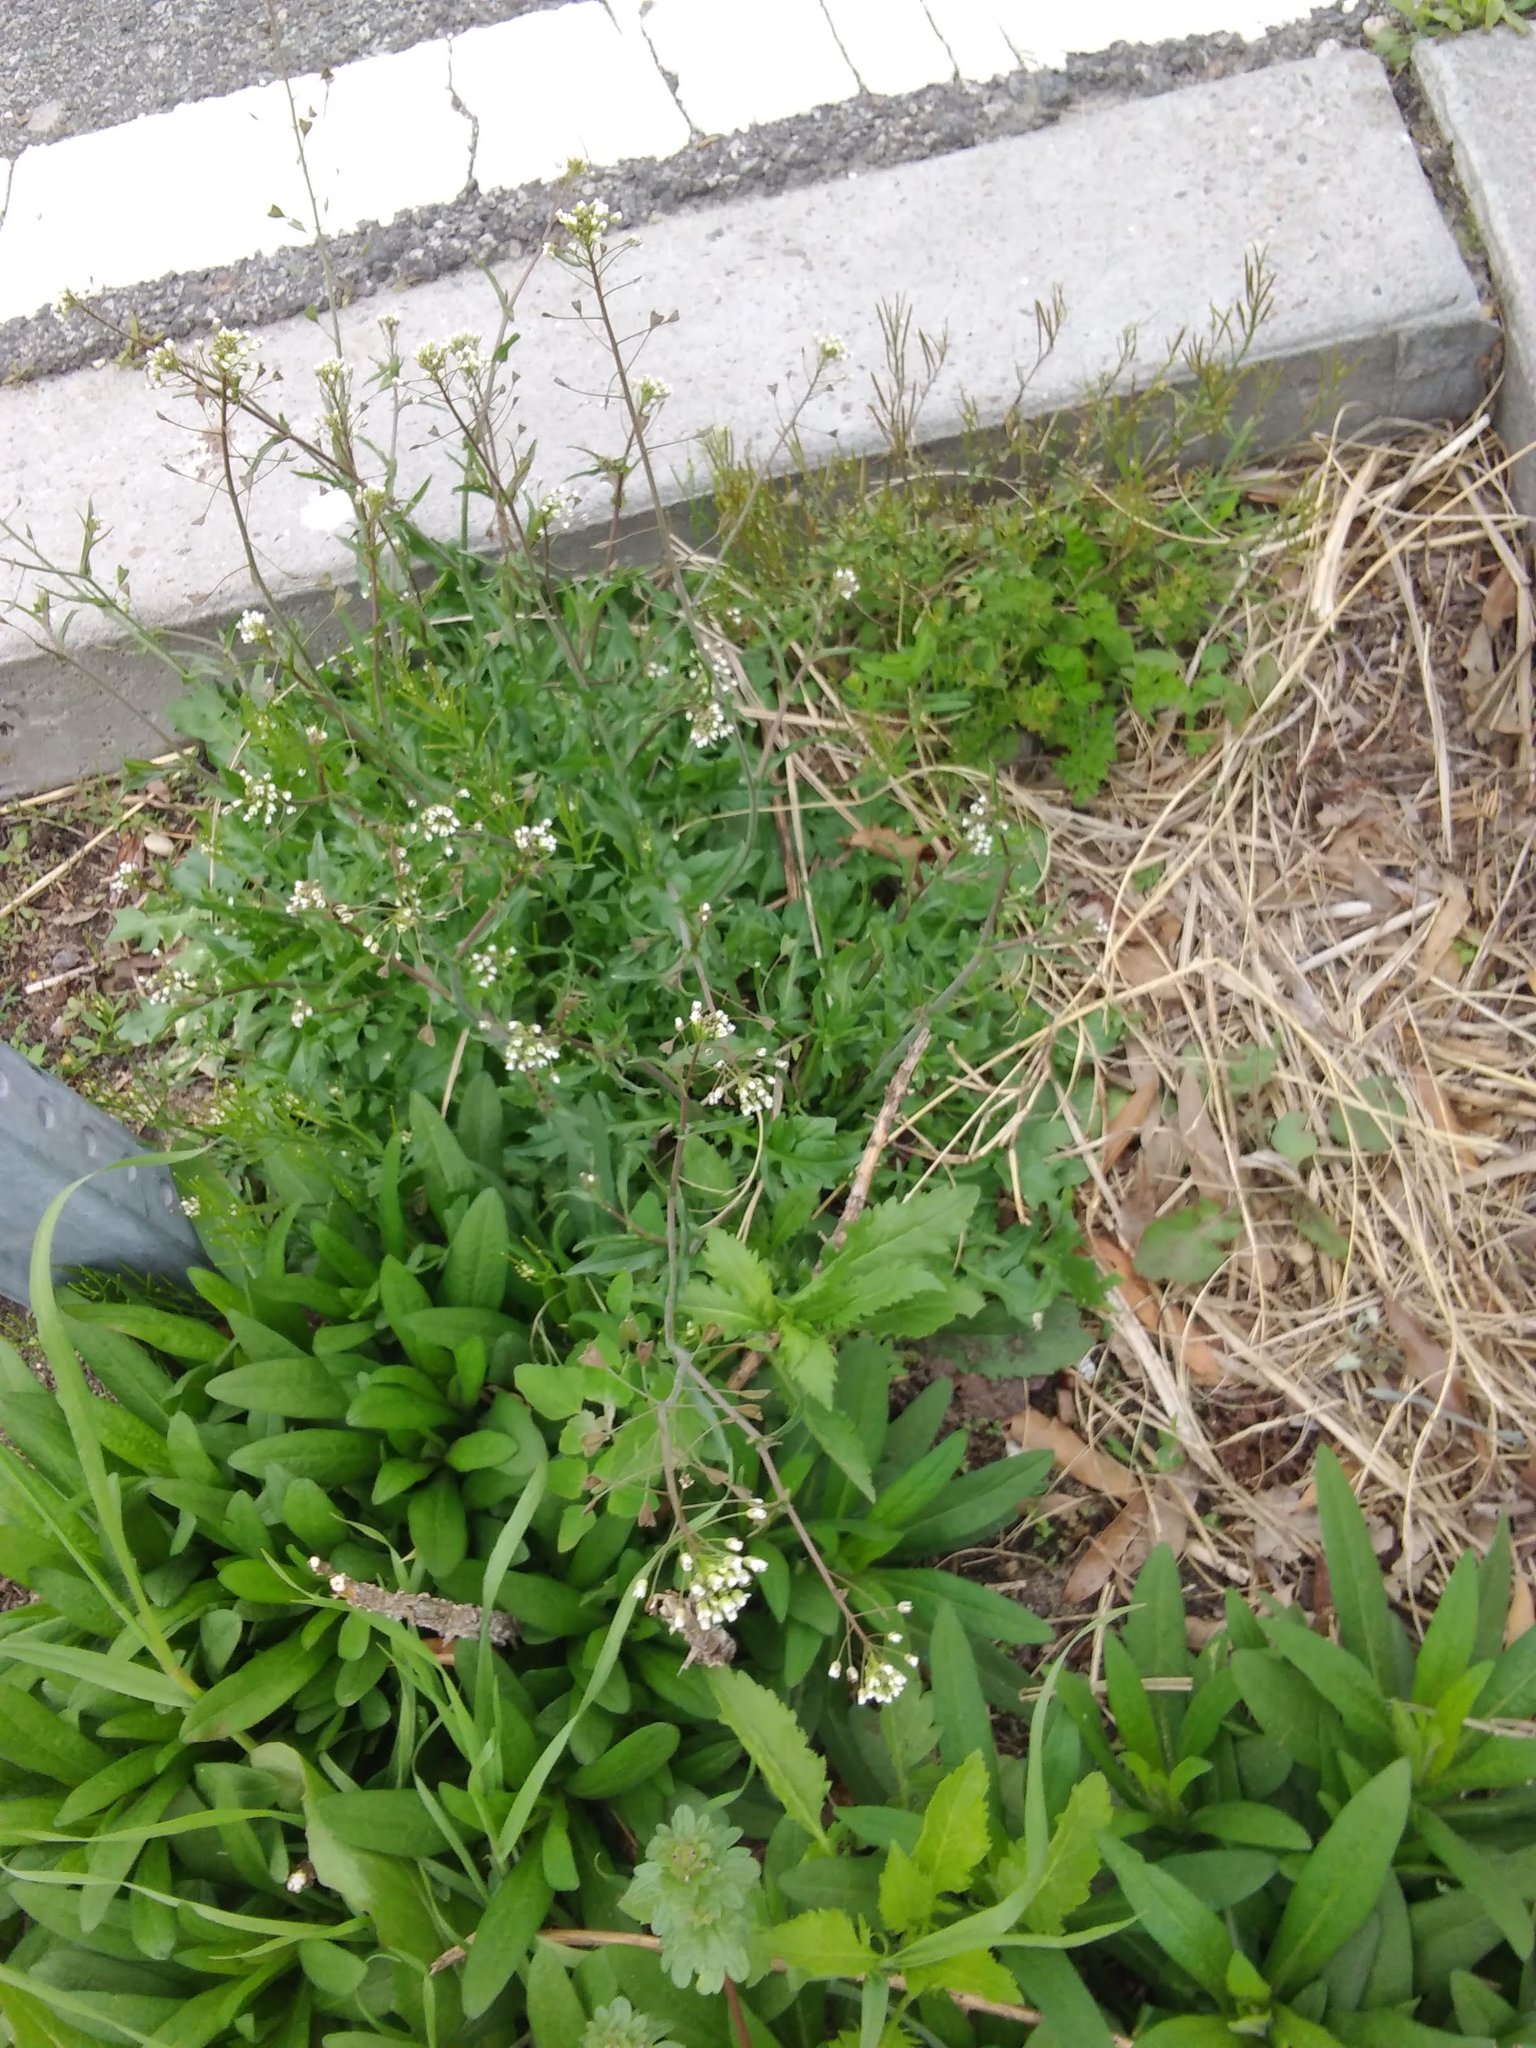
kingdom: Plantae
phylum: Tracheophyta
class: Magnoliopsida
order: Brassicales
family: Brassicaceae
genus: Capsella
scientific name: Capsella bursa-pastoris
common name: Shepherd's purse
